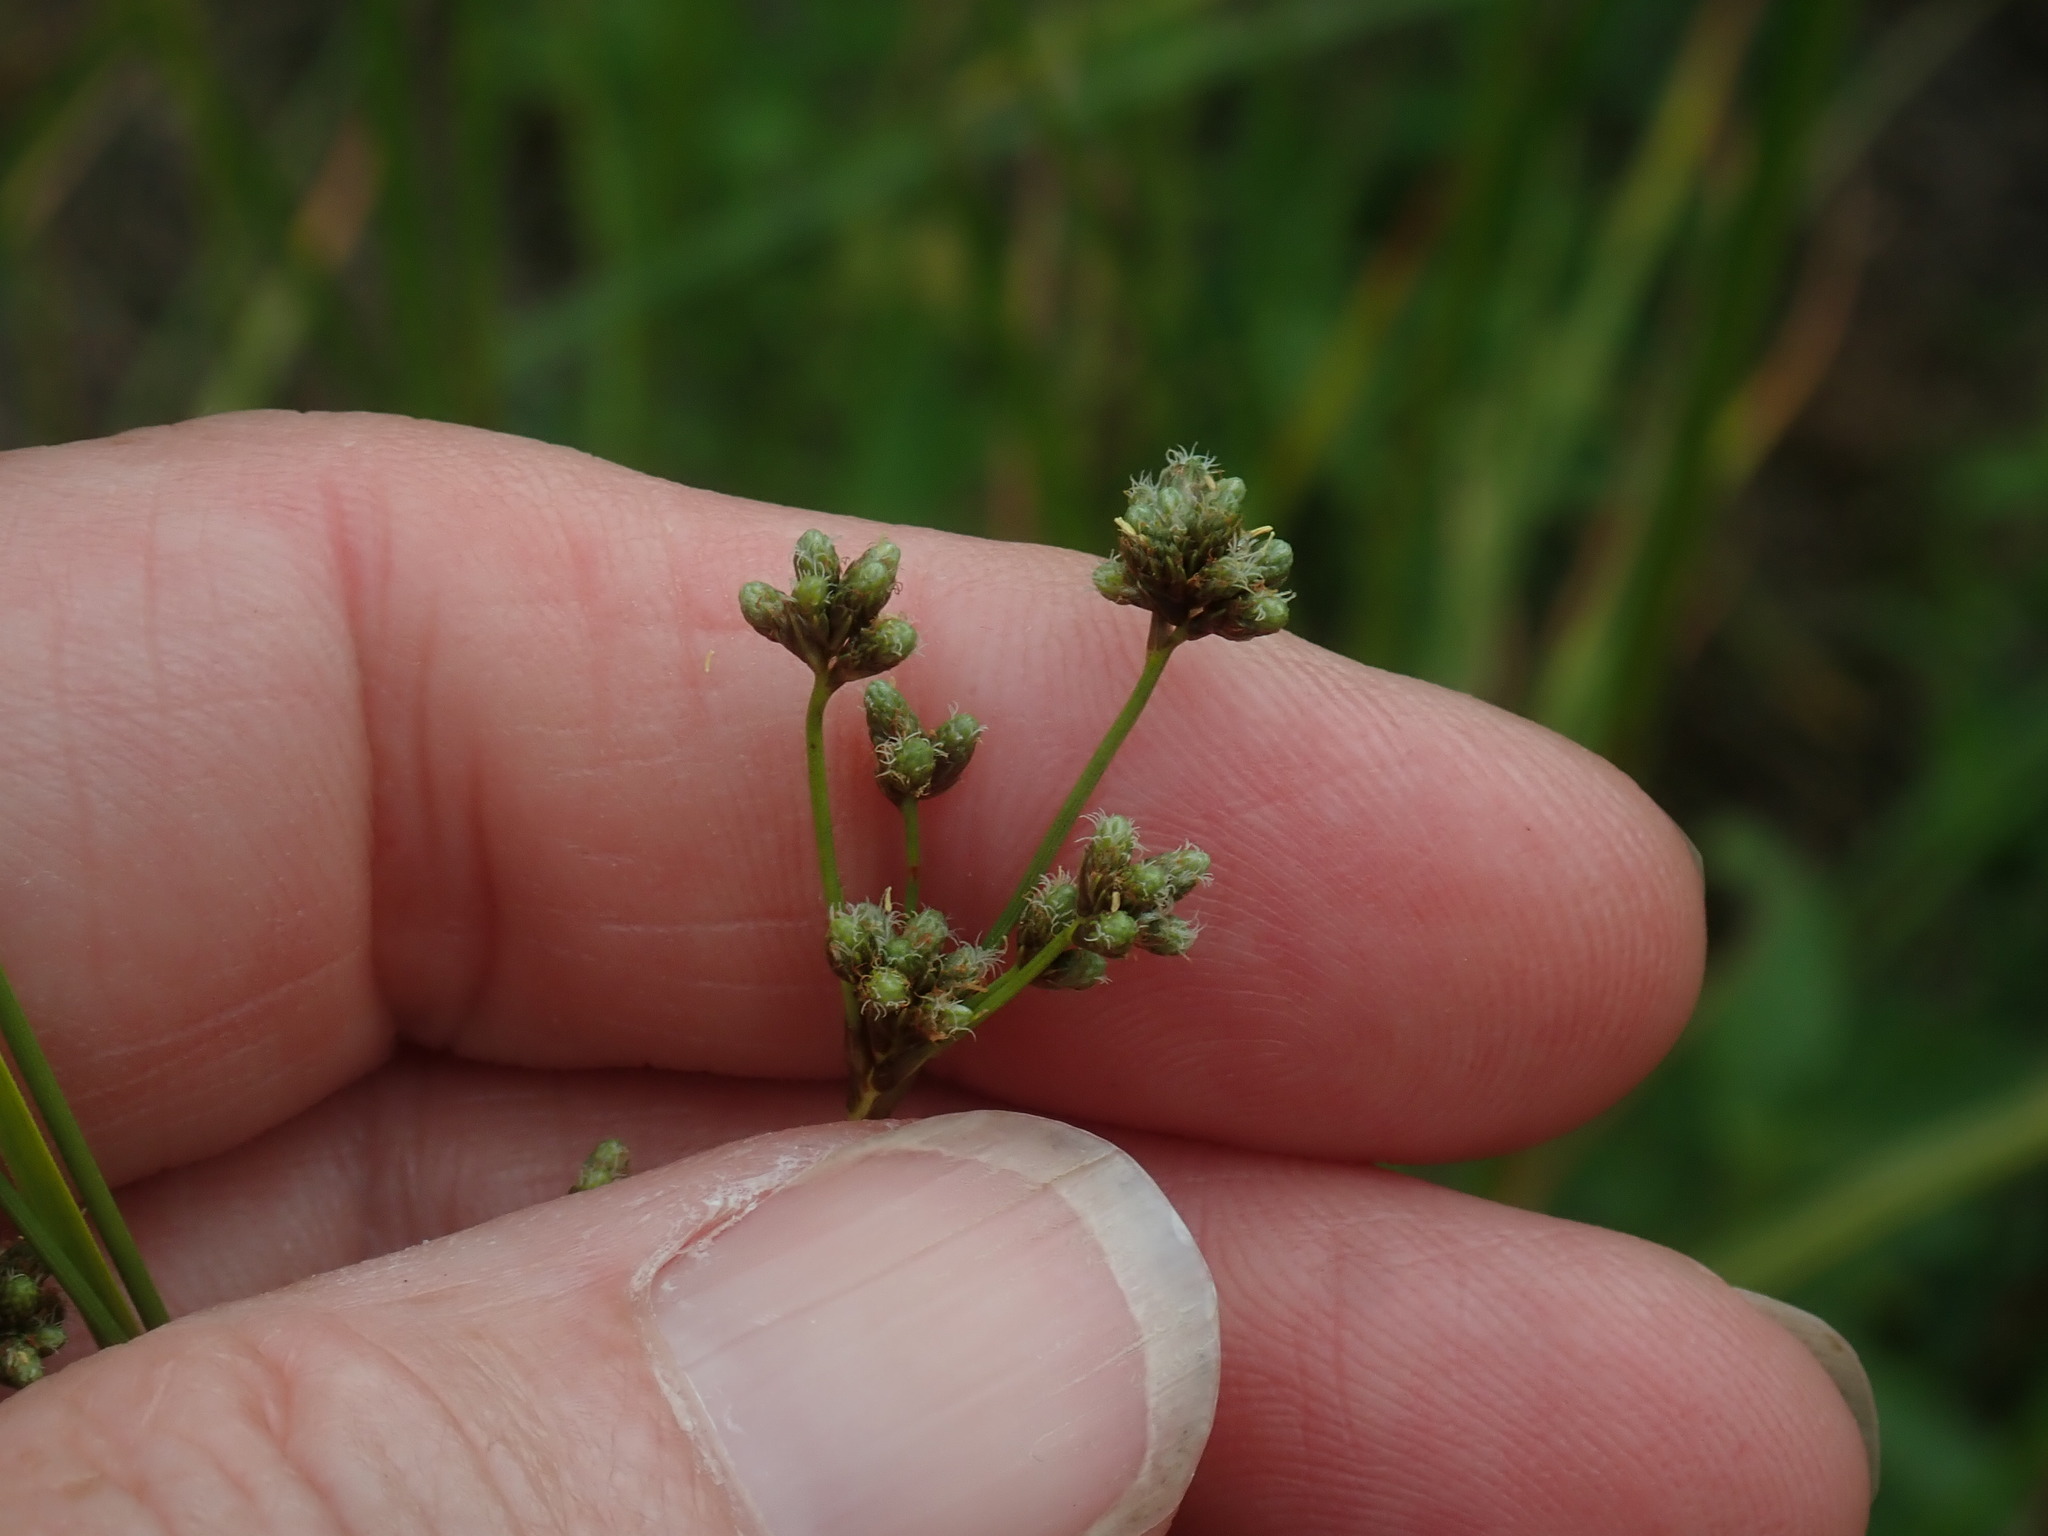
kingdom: Plantae
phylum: Tracheophyta
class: Liliopsida
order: Poales
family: Cyperaceae
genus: Scirpus
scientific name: Scirpus
